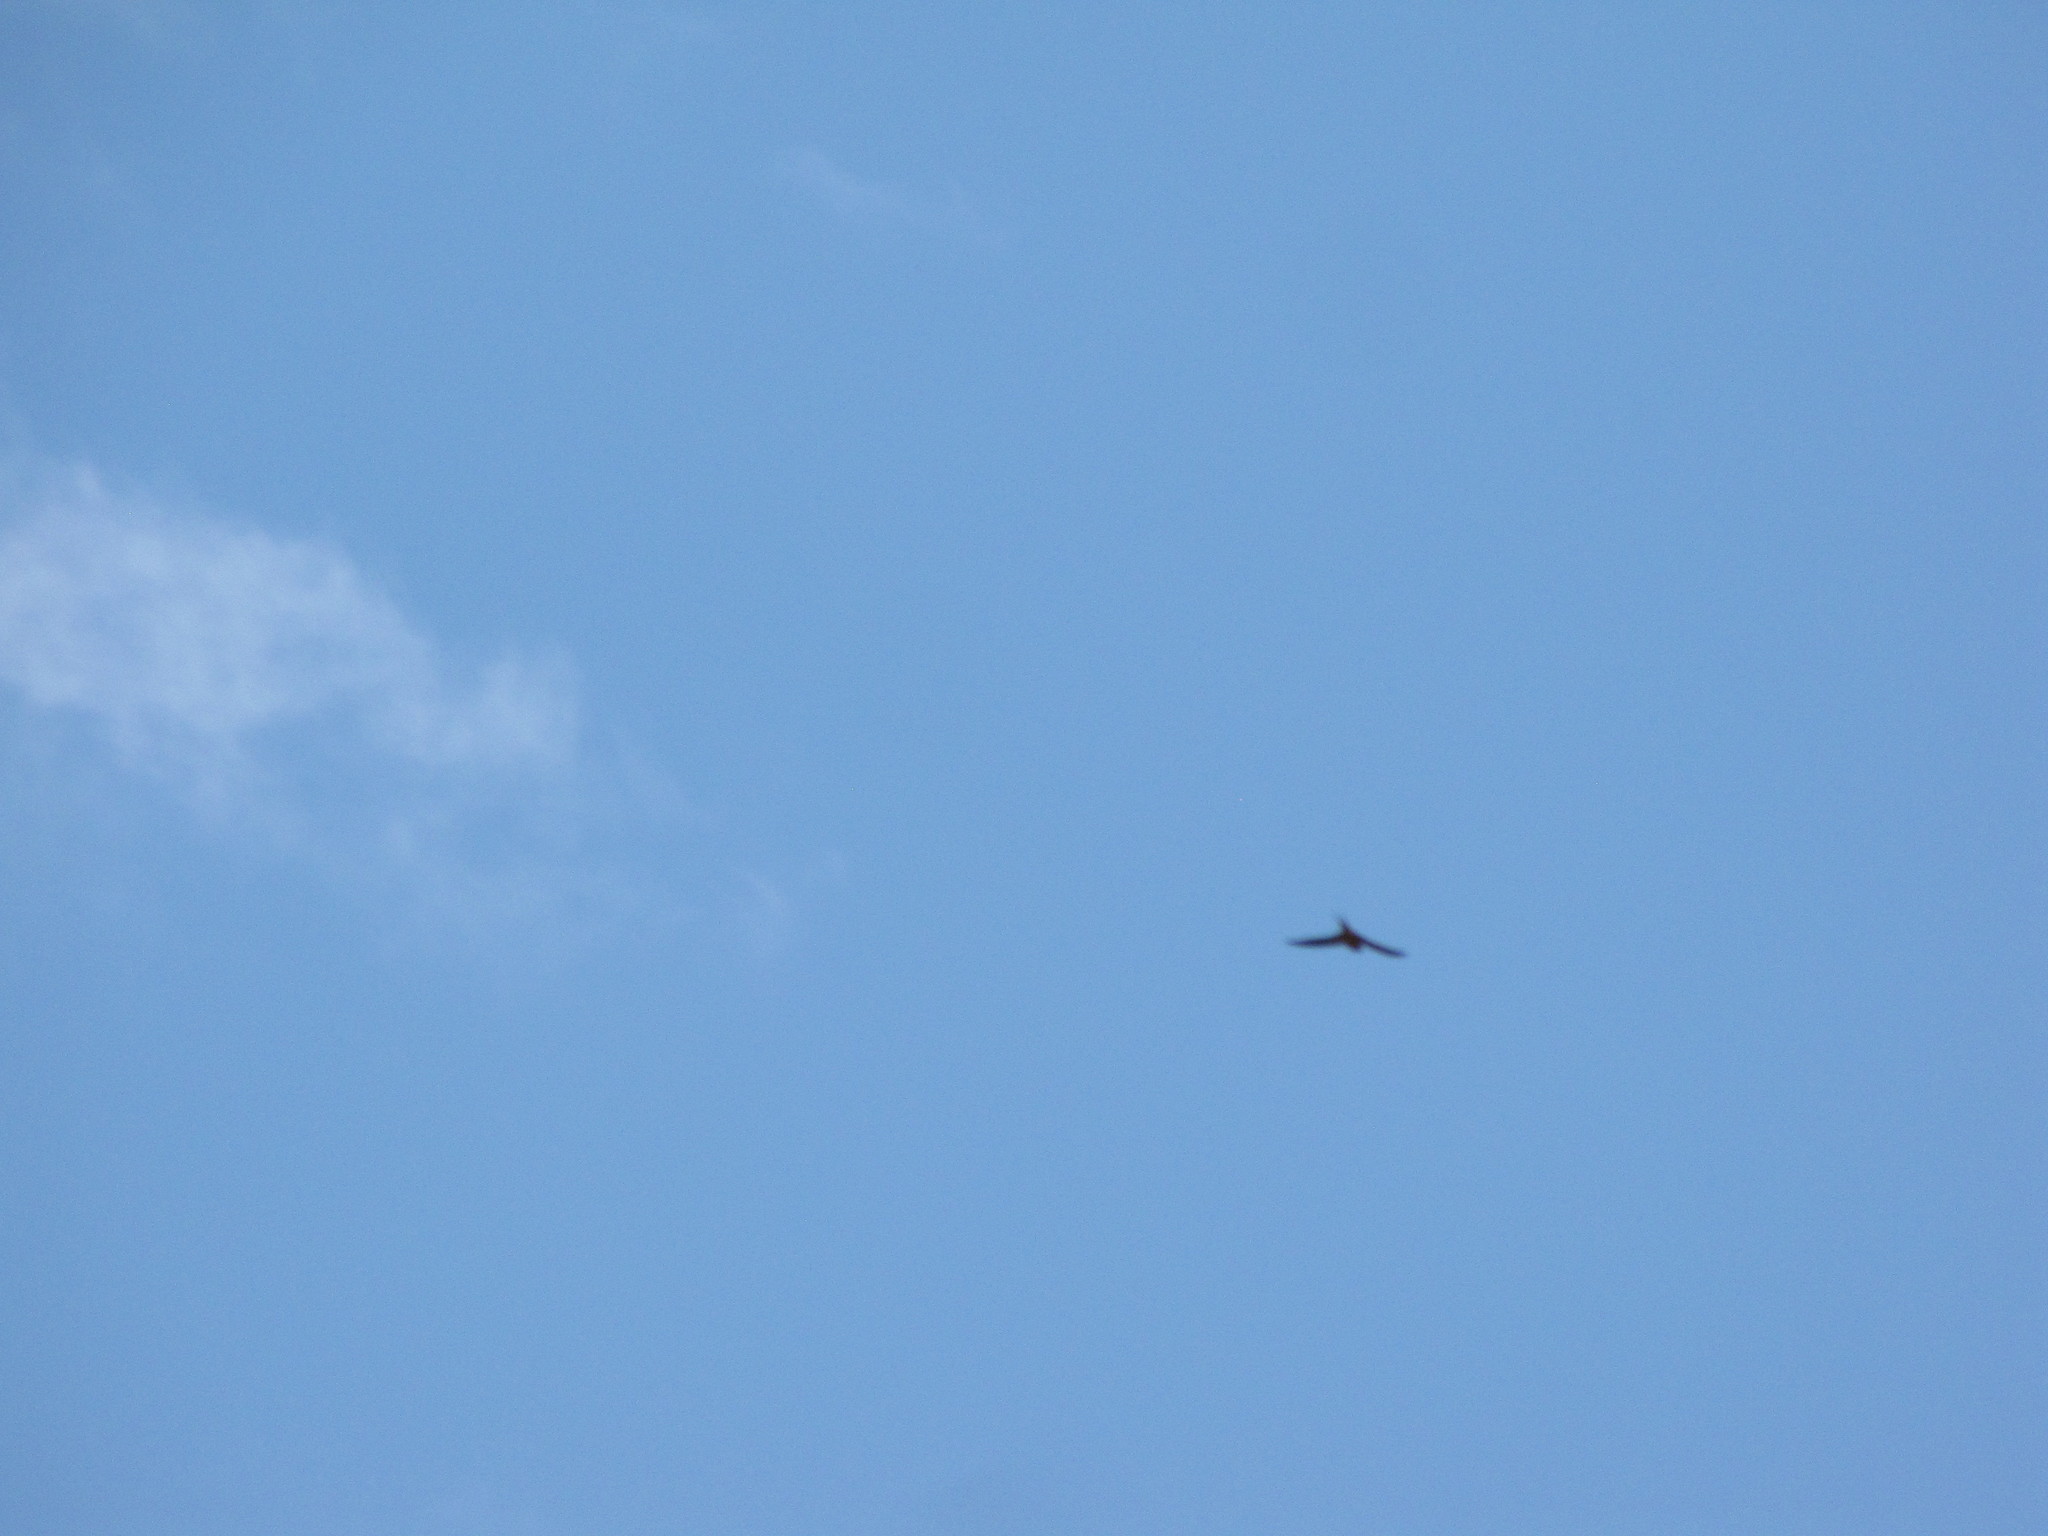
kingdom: Animalia
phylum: Chordata
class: Aves
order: Passeriformes
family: Hirundinidae
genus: Hirundo
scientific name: Hirundo rustica
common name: Barn swallow
